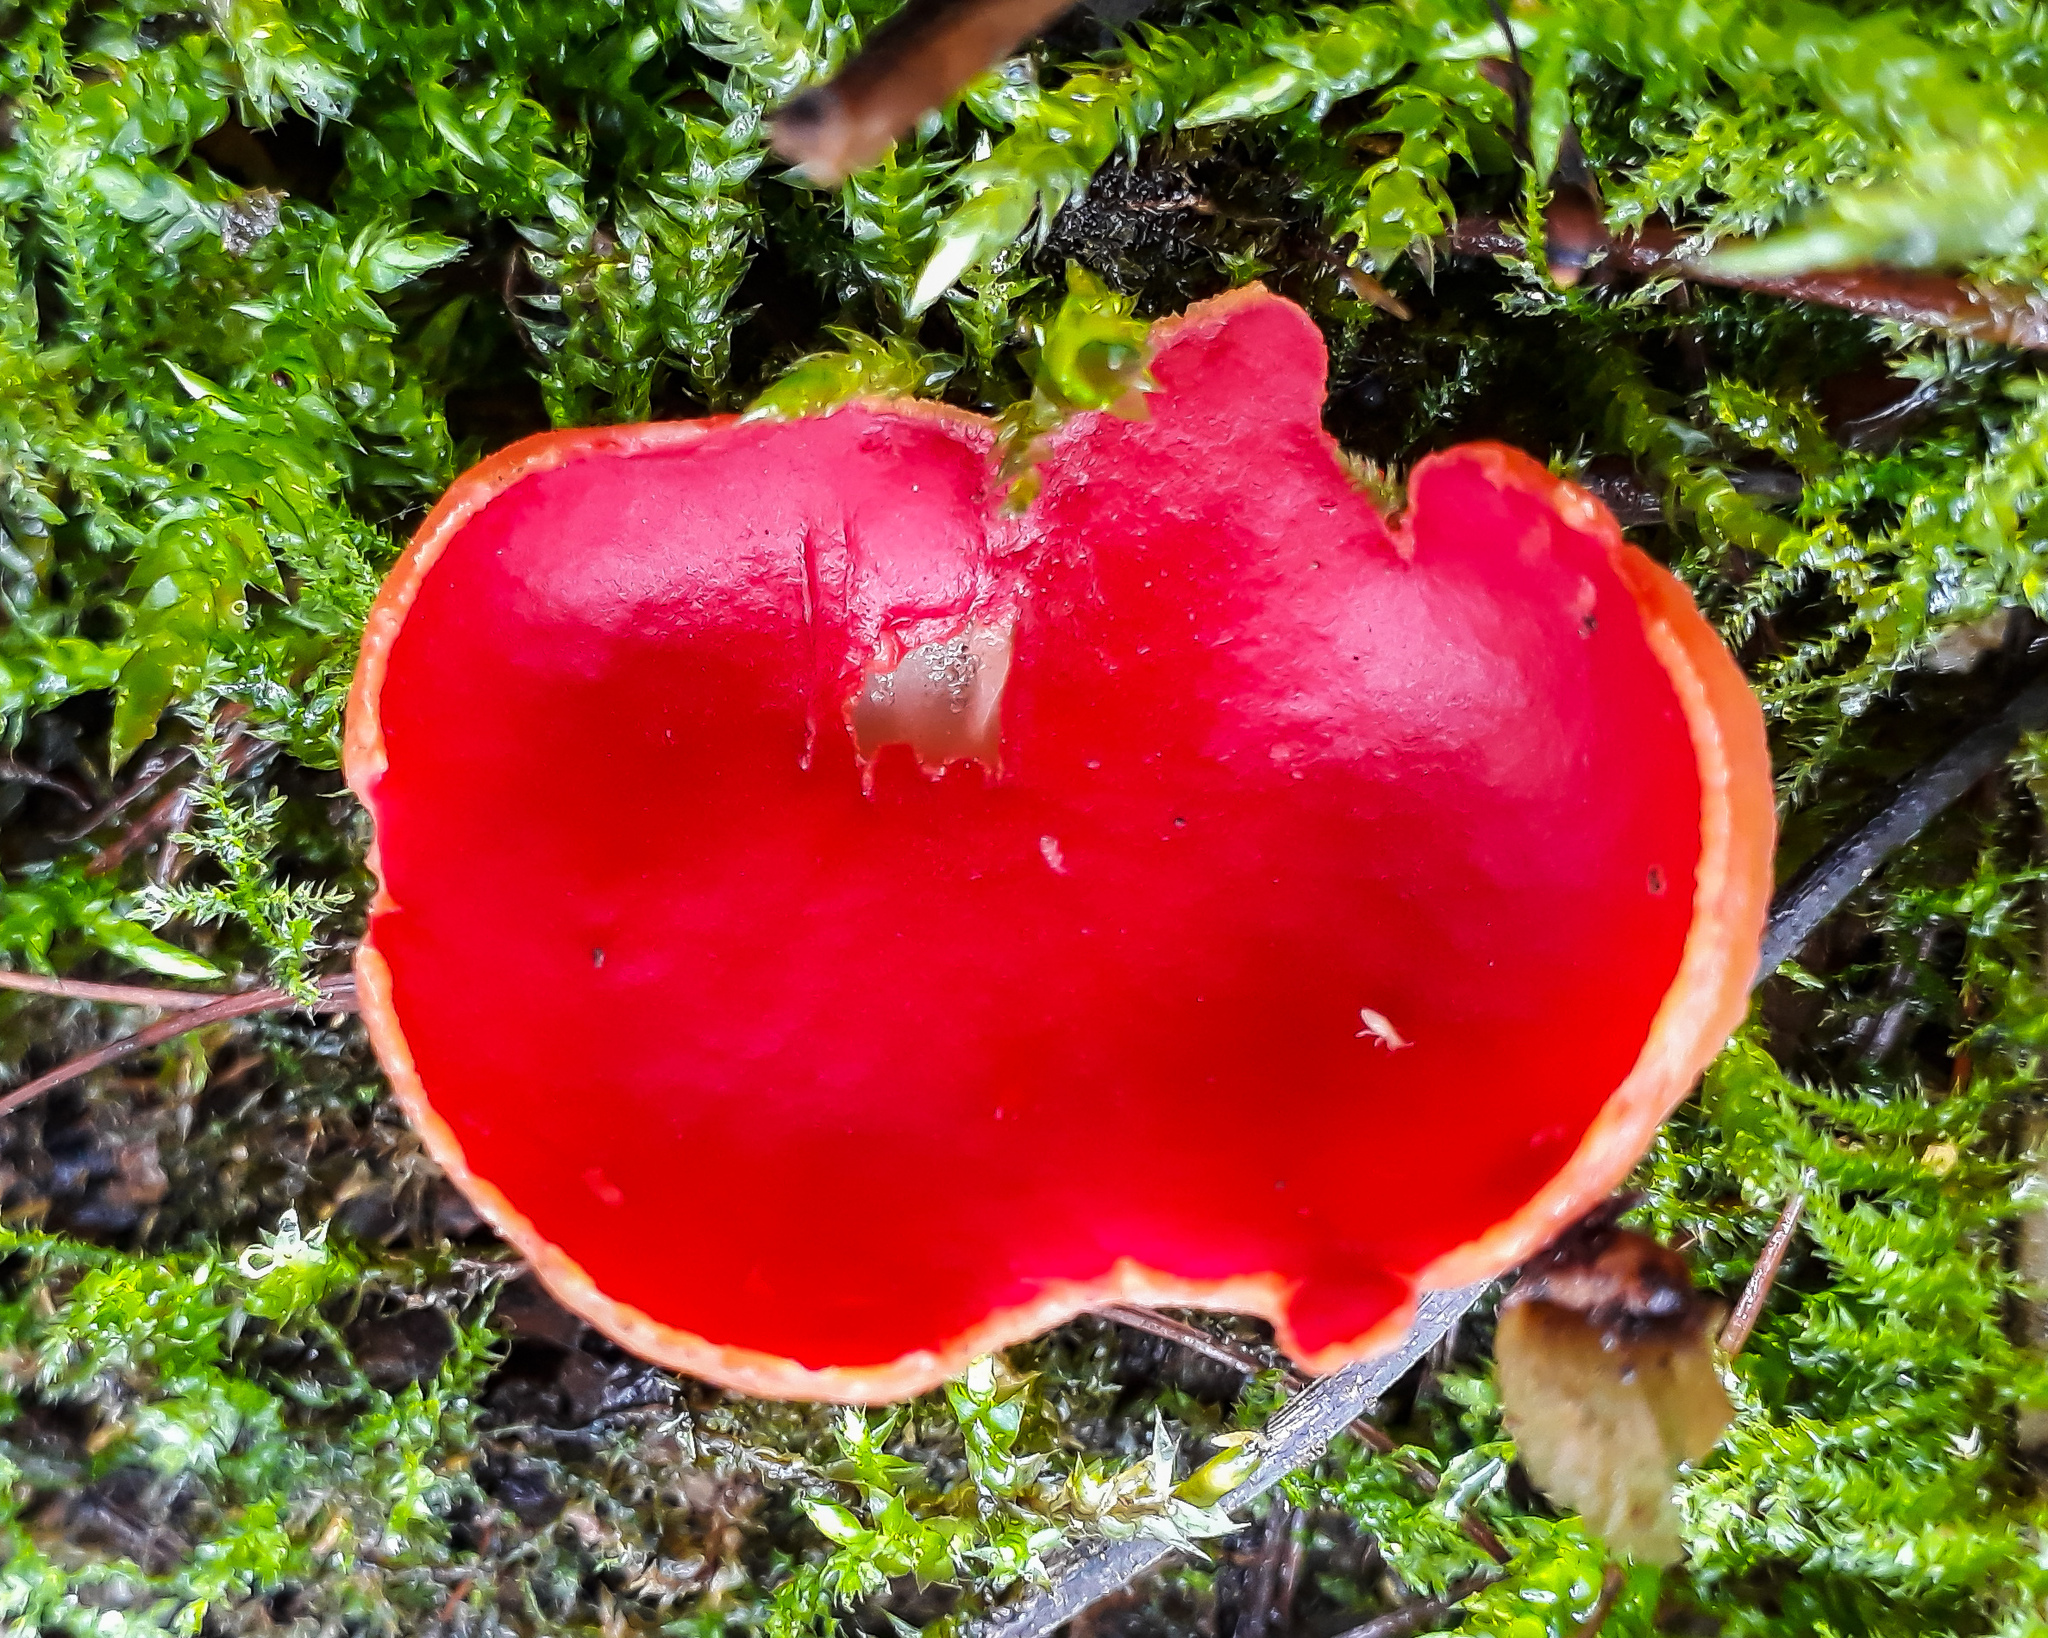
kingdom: Fungi
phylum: Ascomycota
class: Pezizomycetes
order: Pezizales
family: Sarcoscyphaceae
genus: Sarcoscypha
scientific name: Sarcoscypha
